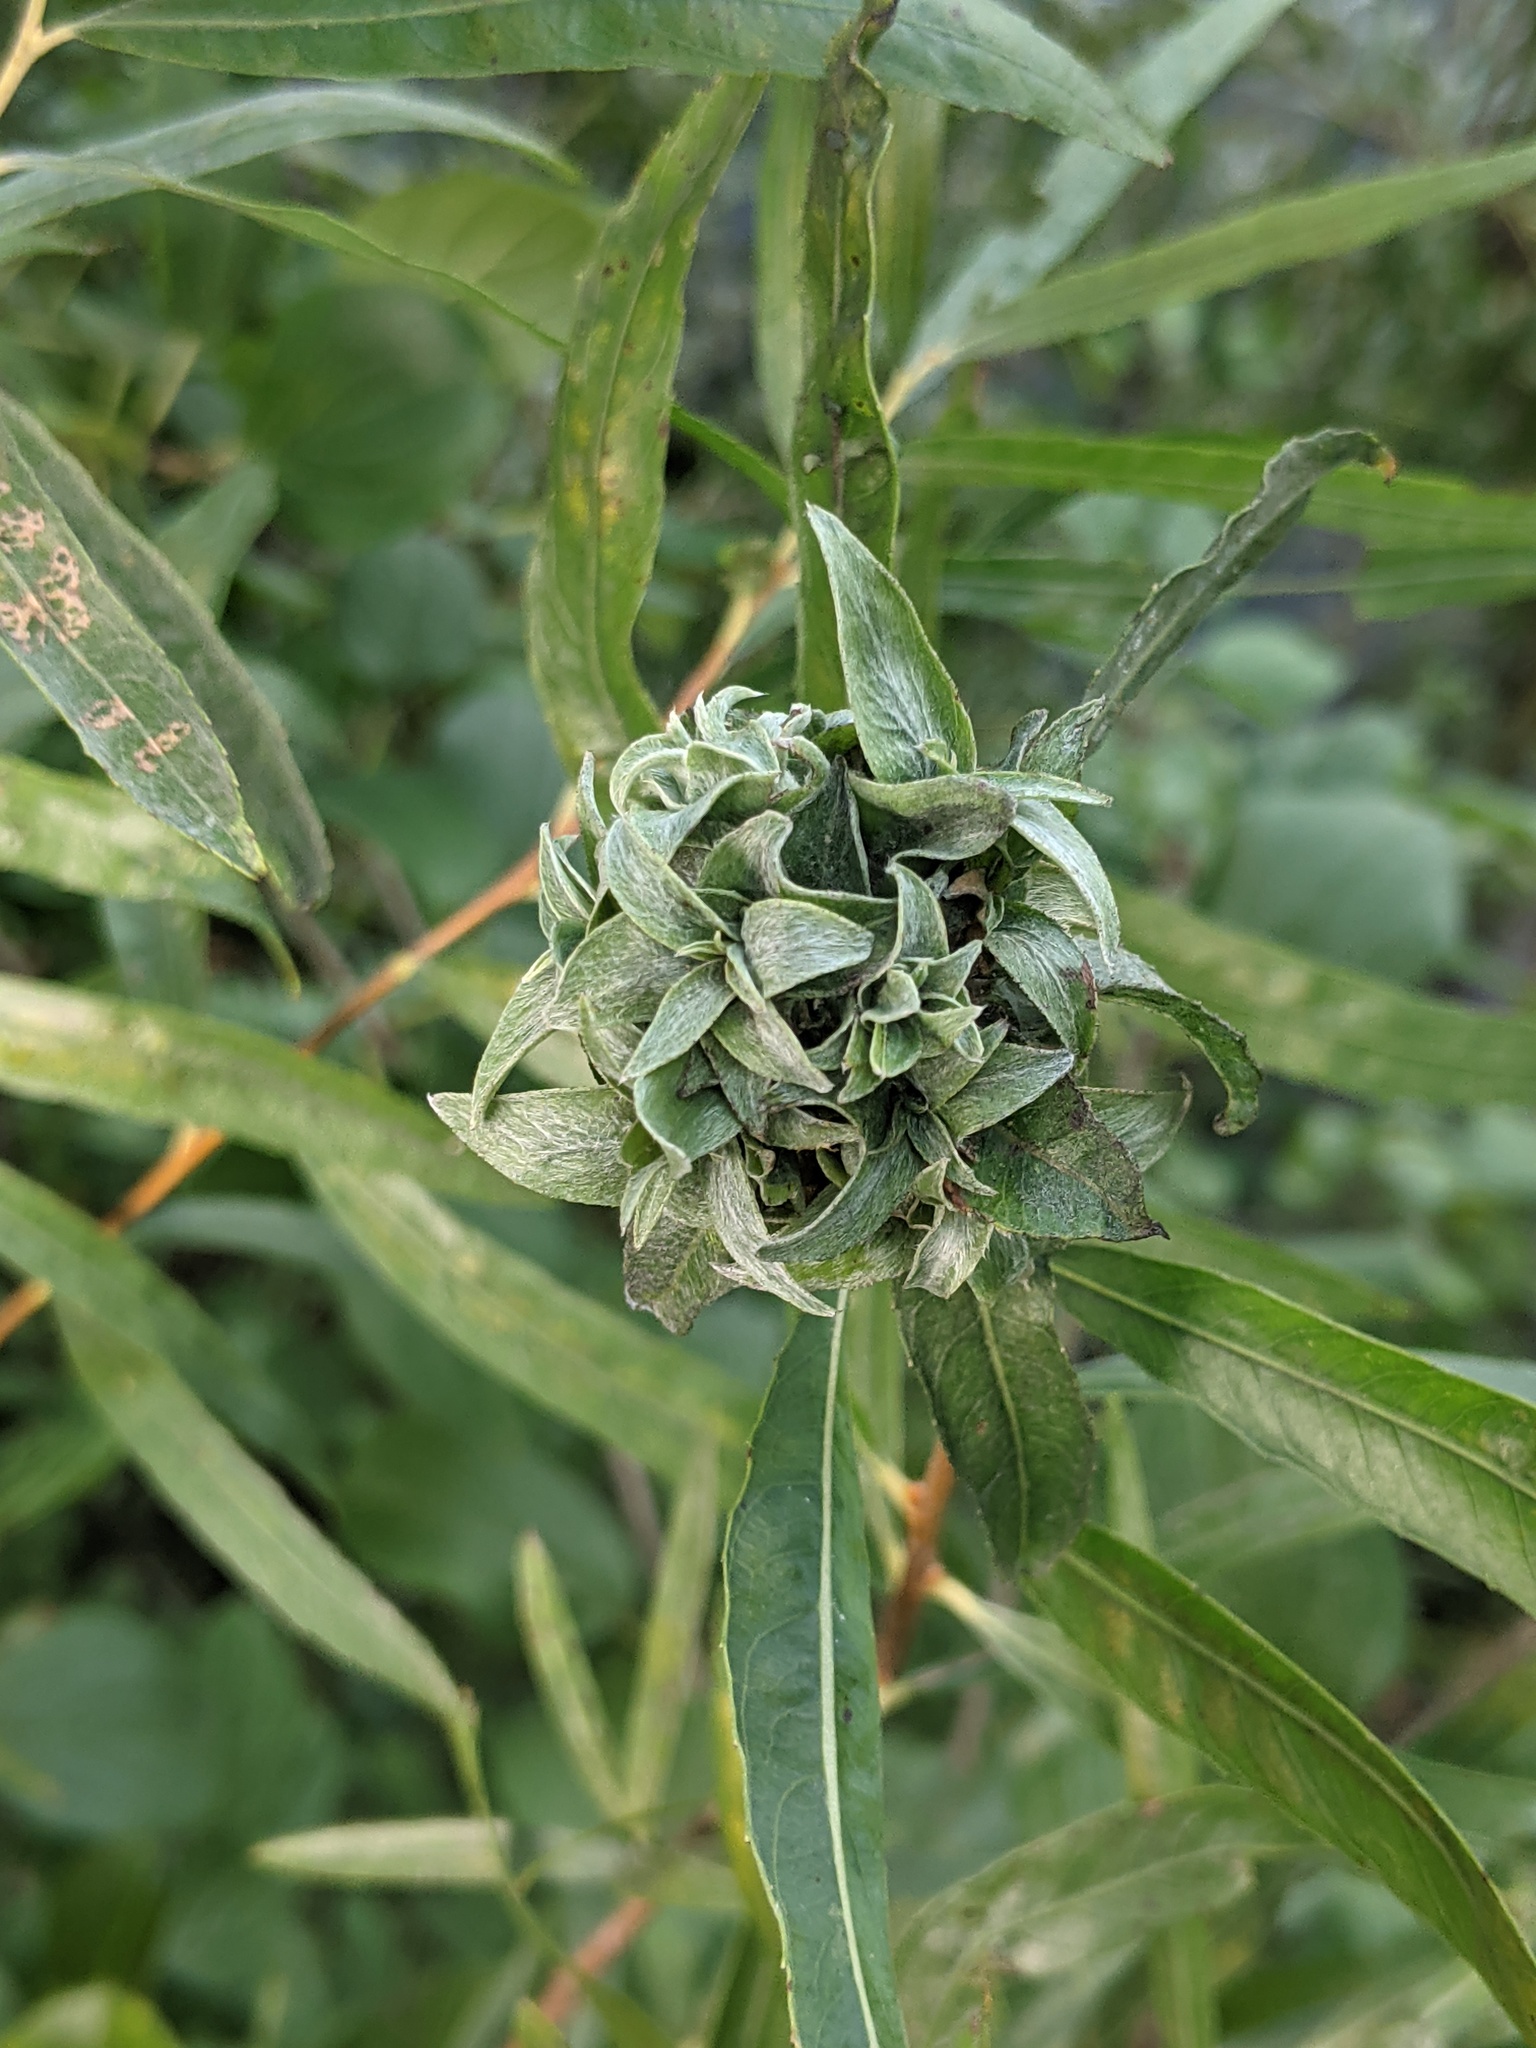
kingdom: Animalia
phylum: Arthropoda
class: Insecta
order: Diptera
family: Cecidomyiidae
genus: Rabdophaga
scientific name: Rabdophaga salicisbrassicoides
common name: Willow cabbagegall midge
